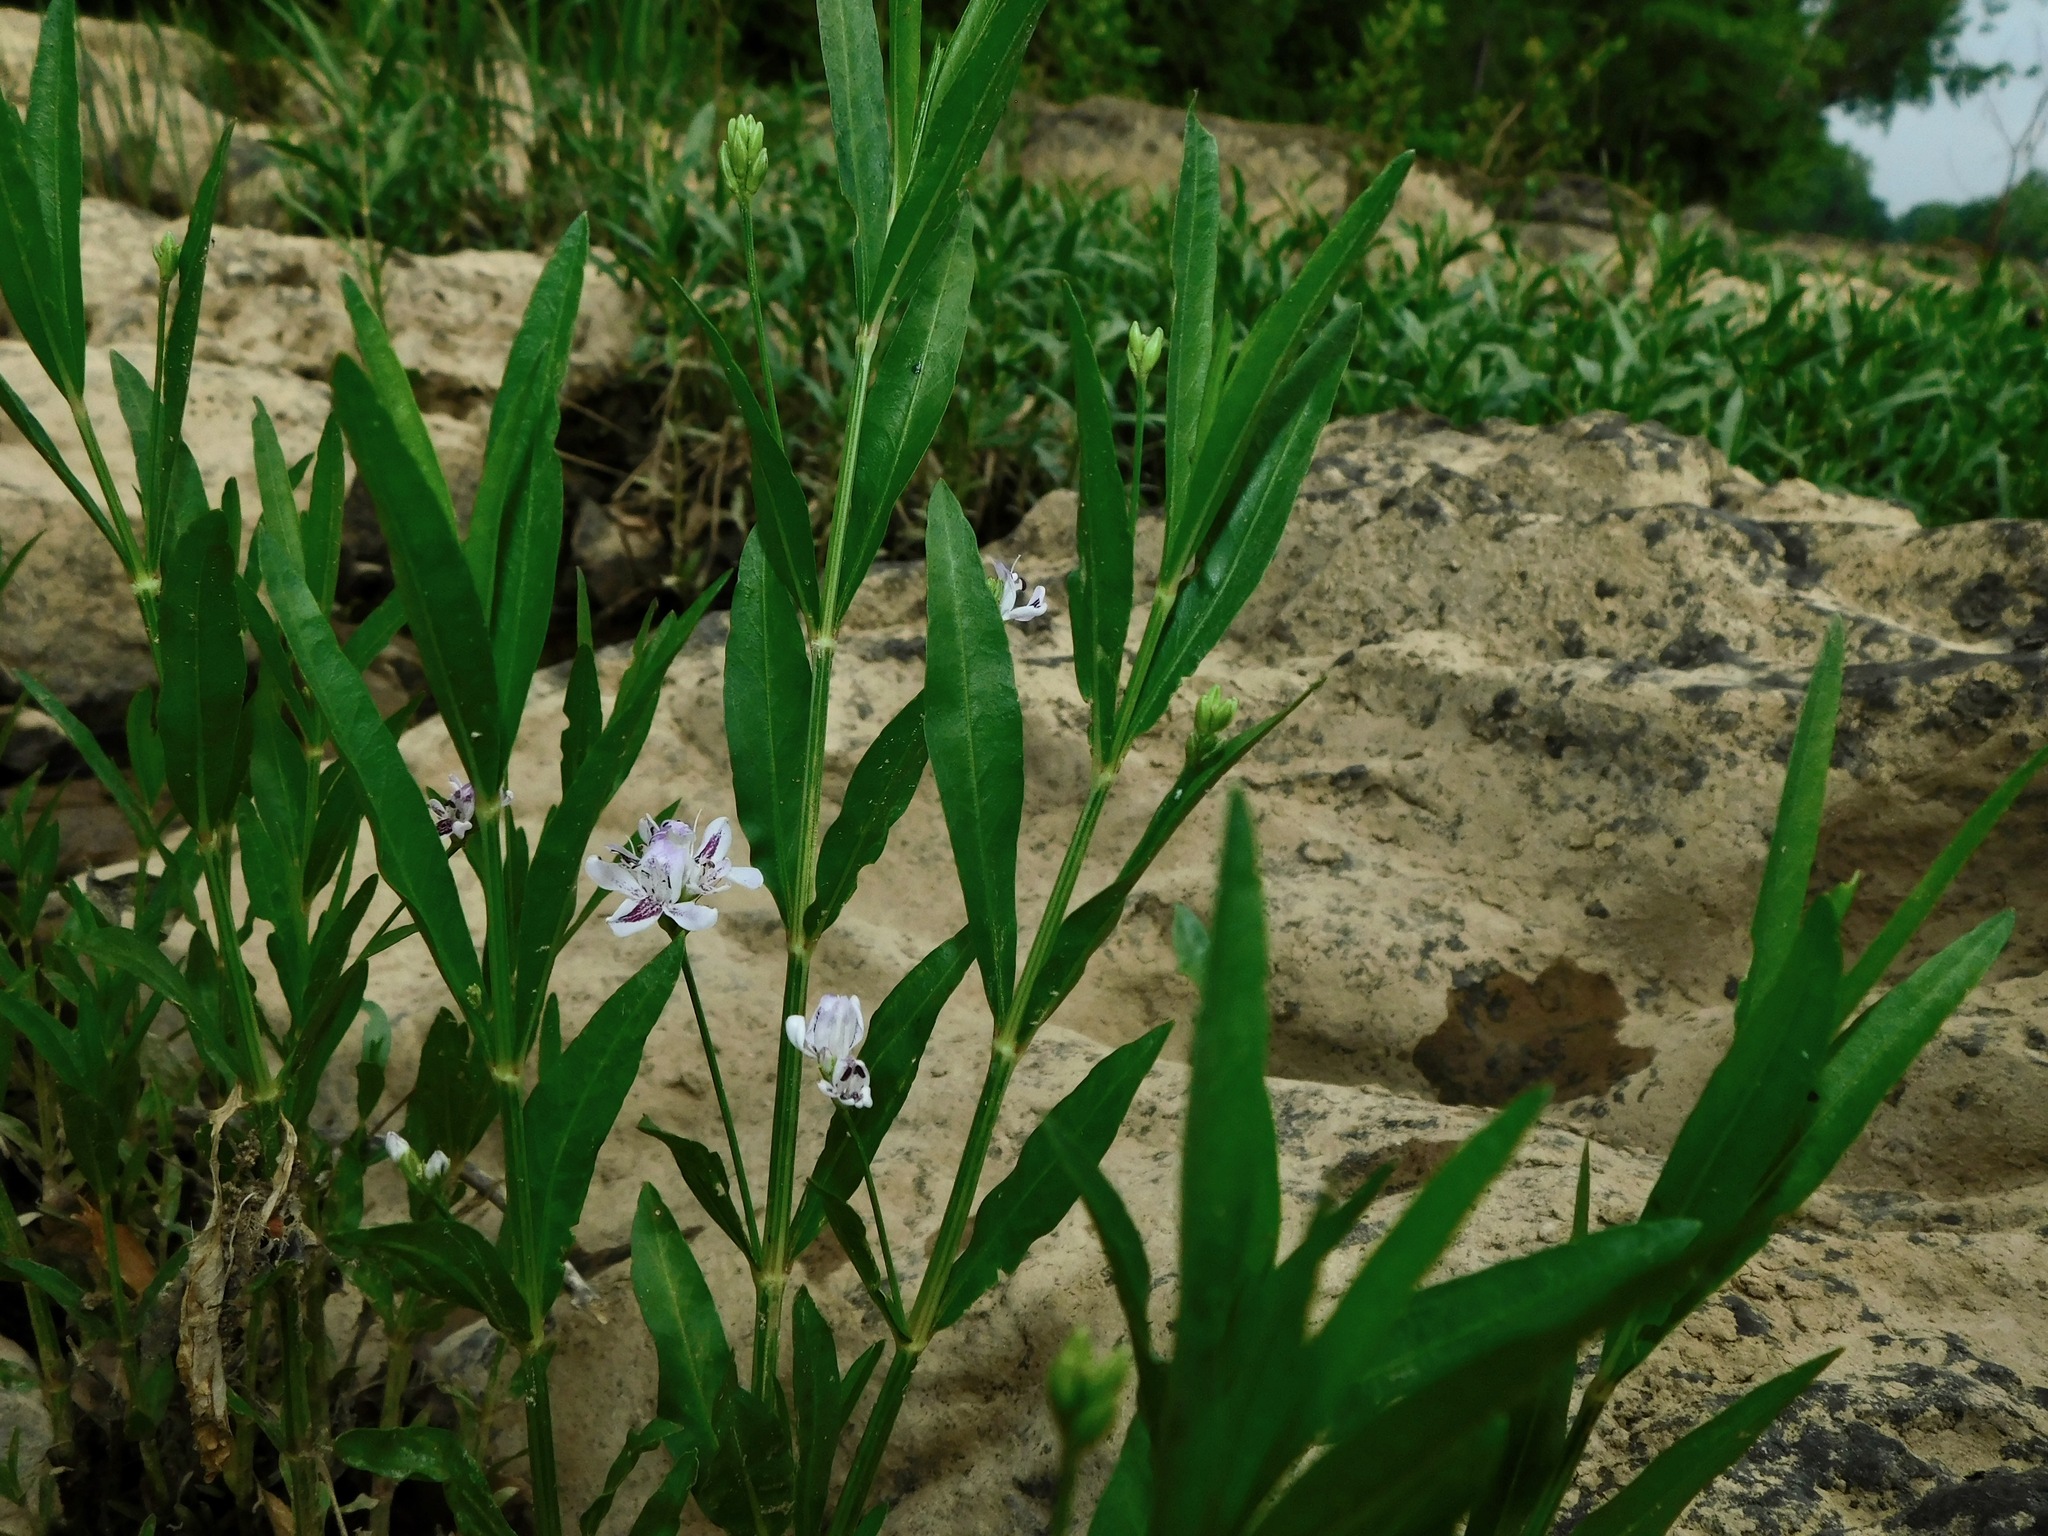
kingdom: Plantae
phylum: Tracheophyta
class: Magnoliopsida
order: Lamiales
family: Acanthaceae
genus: Dianthera
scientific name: Dianthera americana
